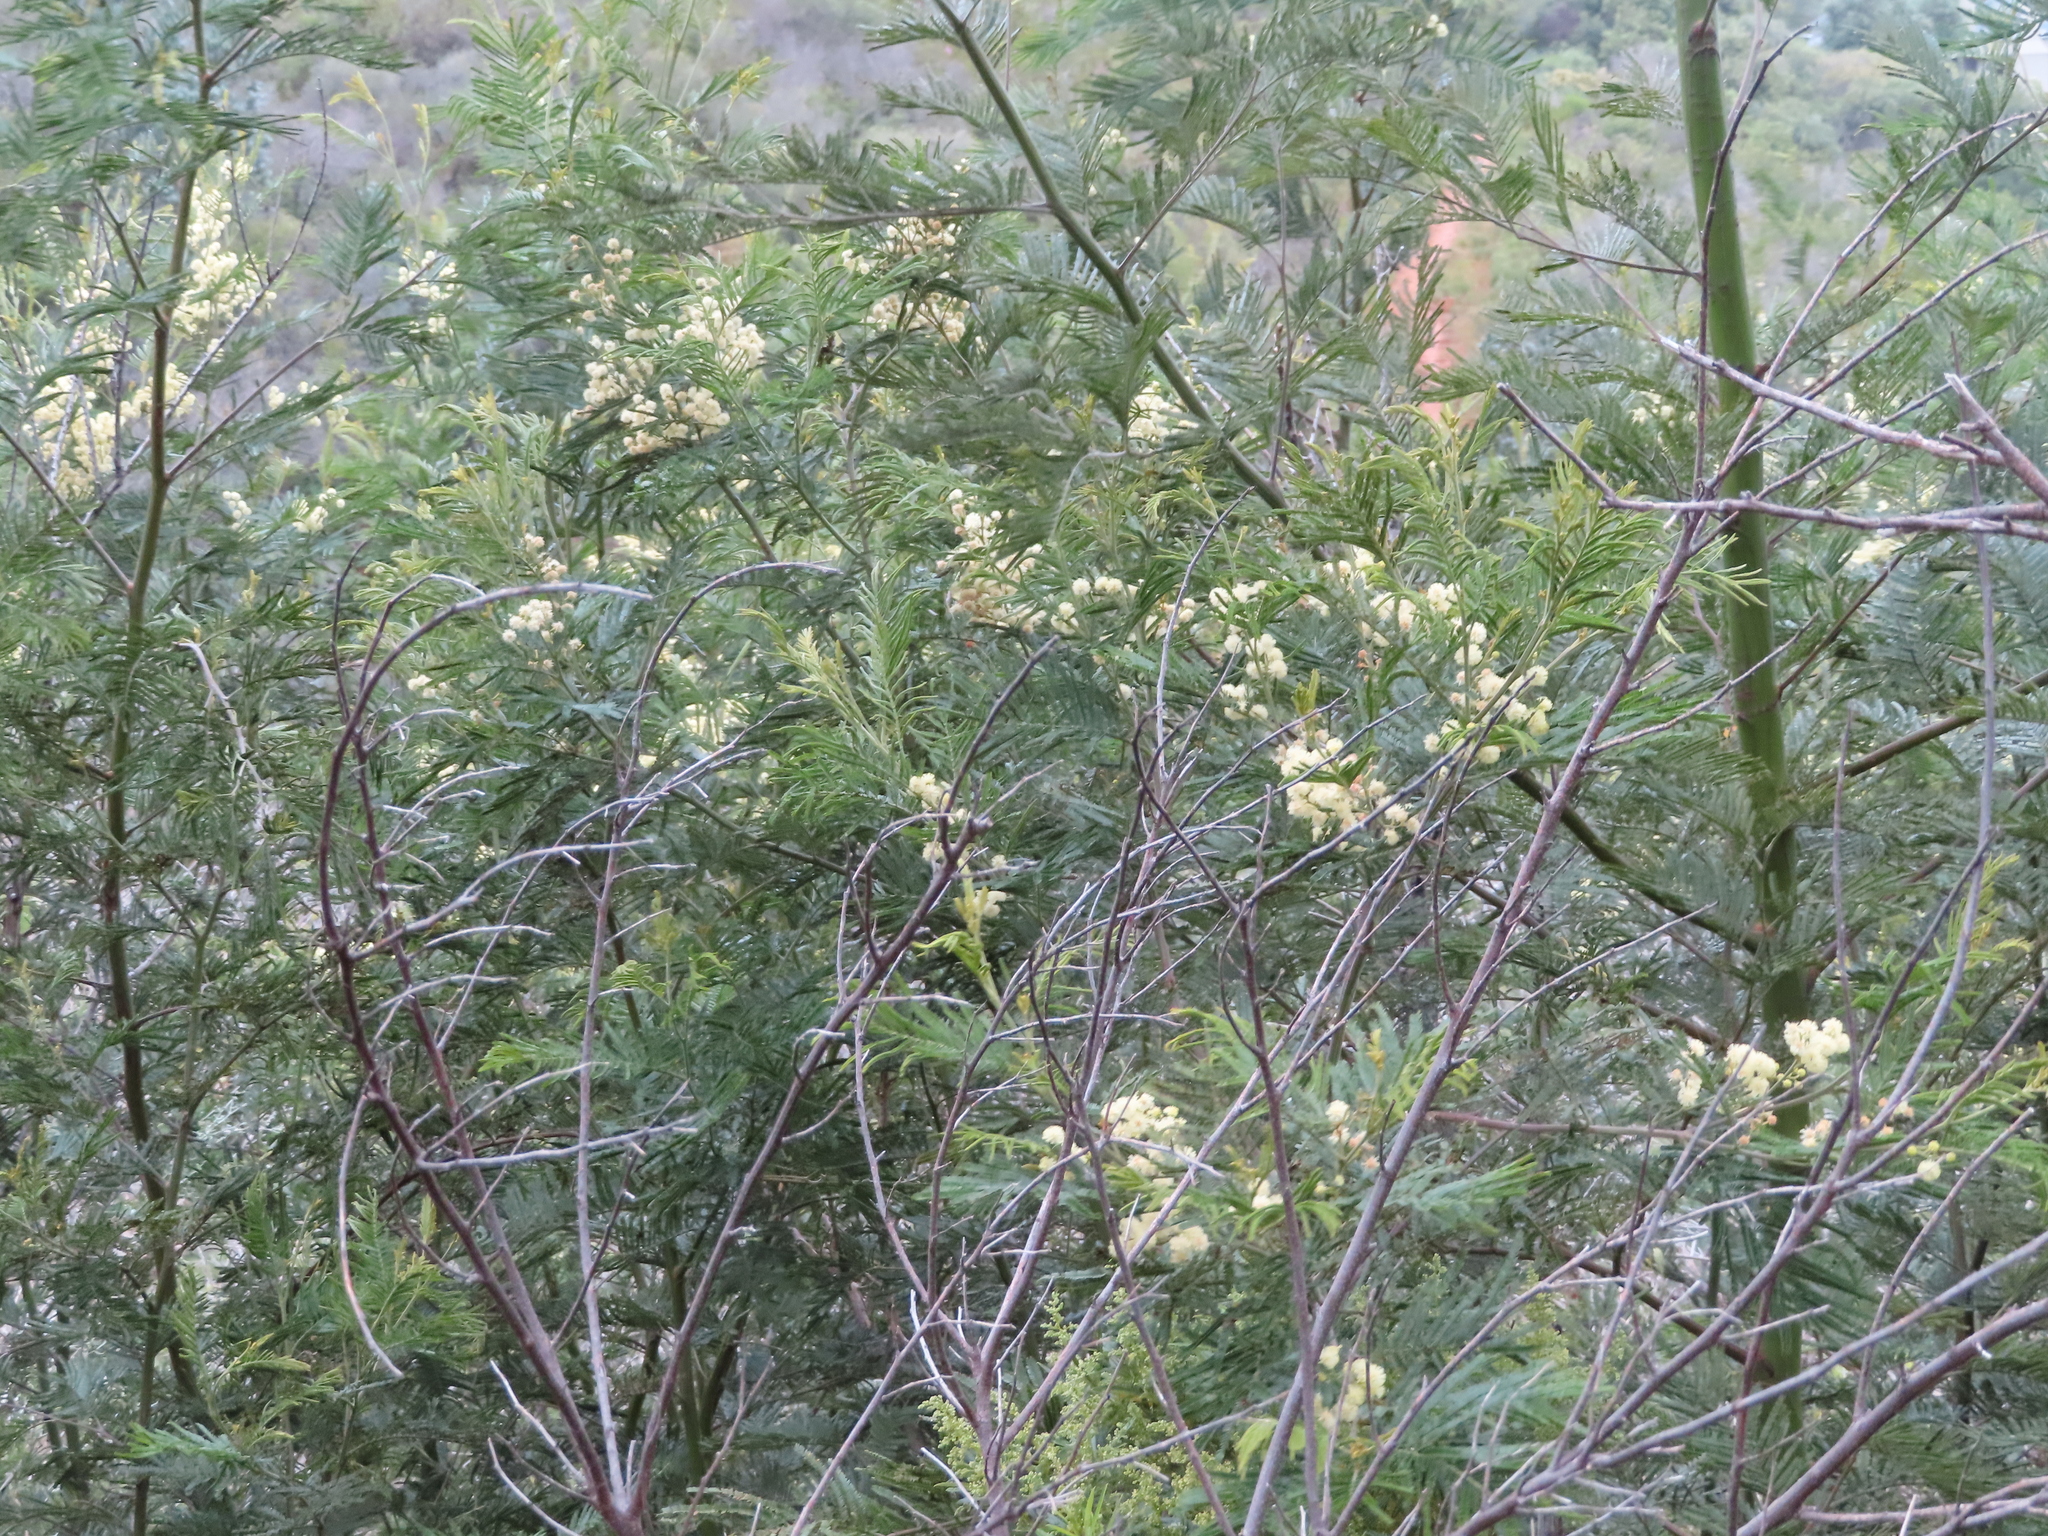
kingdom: Plantae
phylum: Tracheophyta
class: Magnoliopsida
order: Fabales
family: Fabaceae
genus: Acacia
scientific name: Acacia mearnsii
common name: Black wattle
